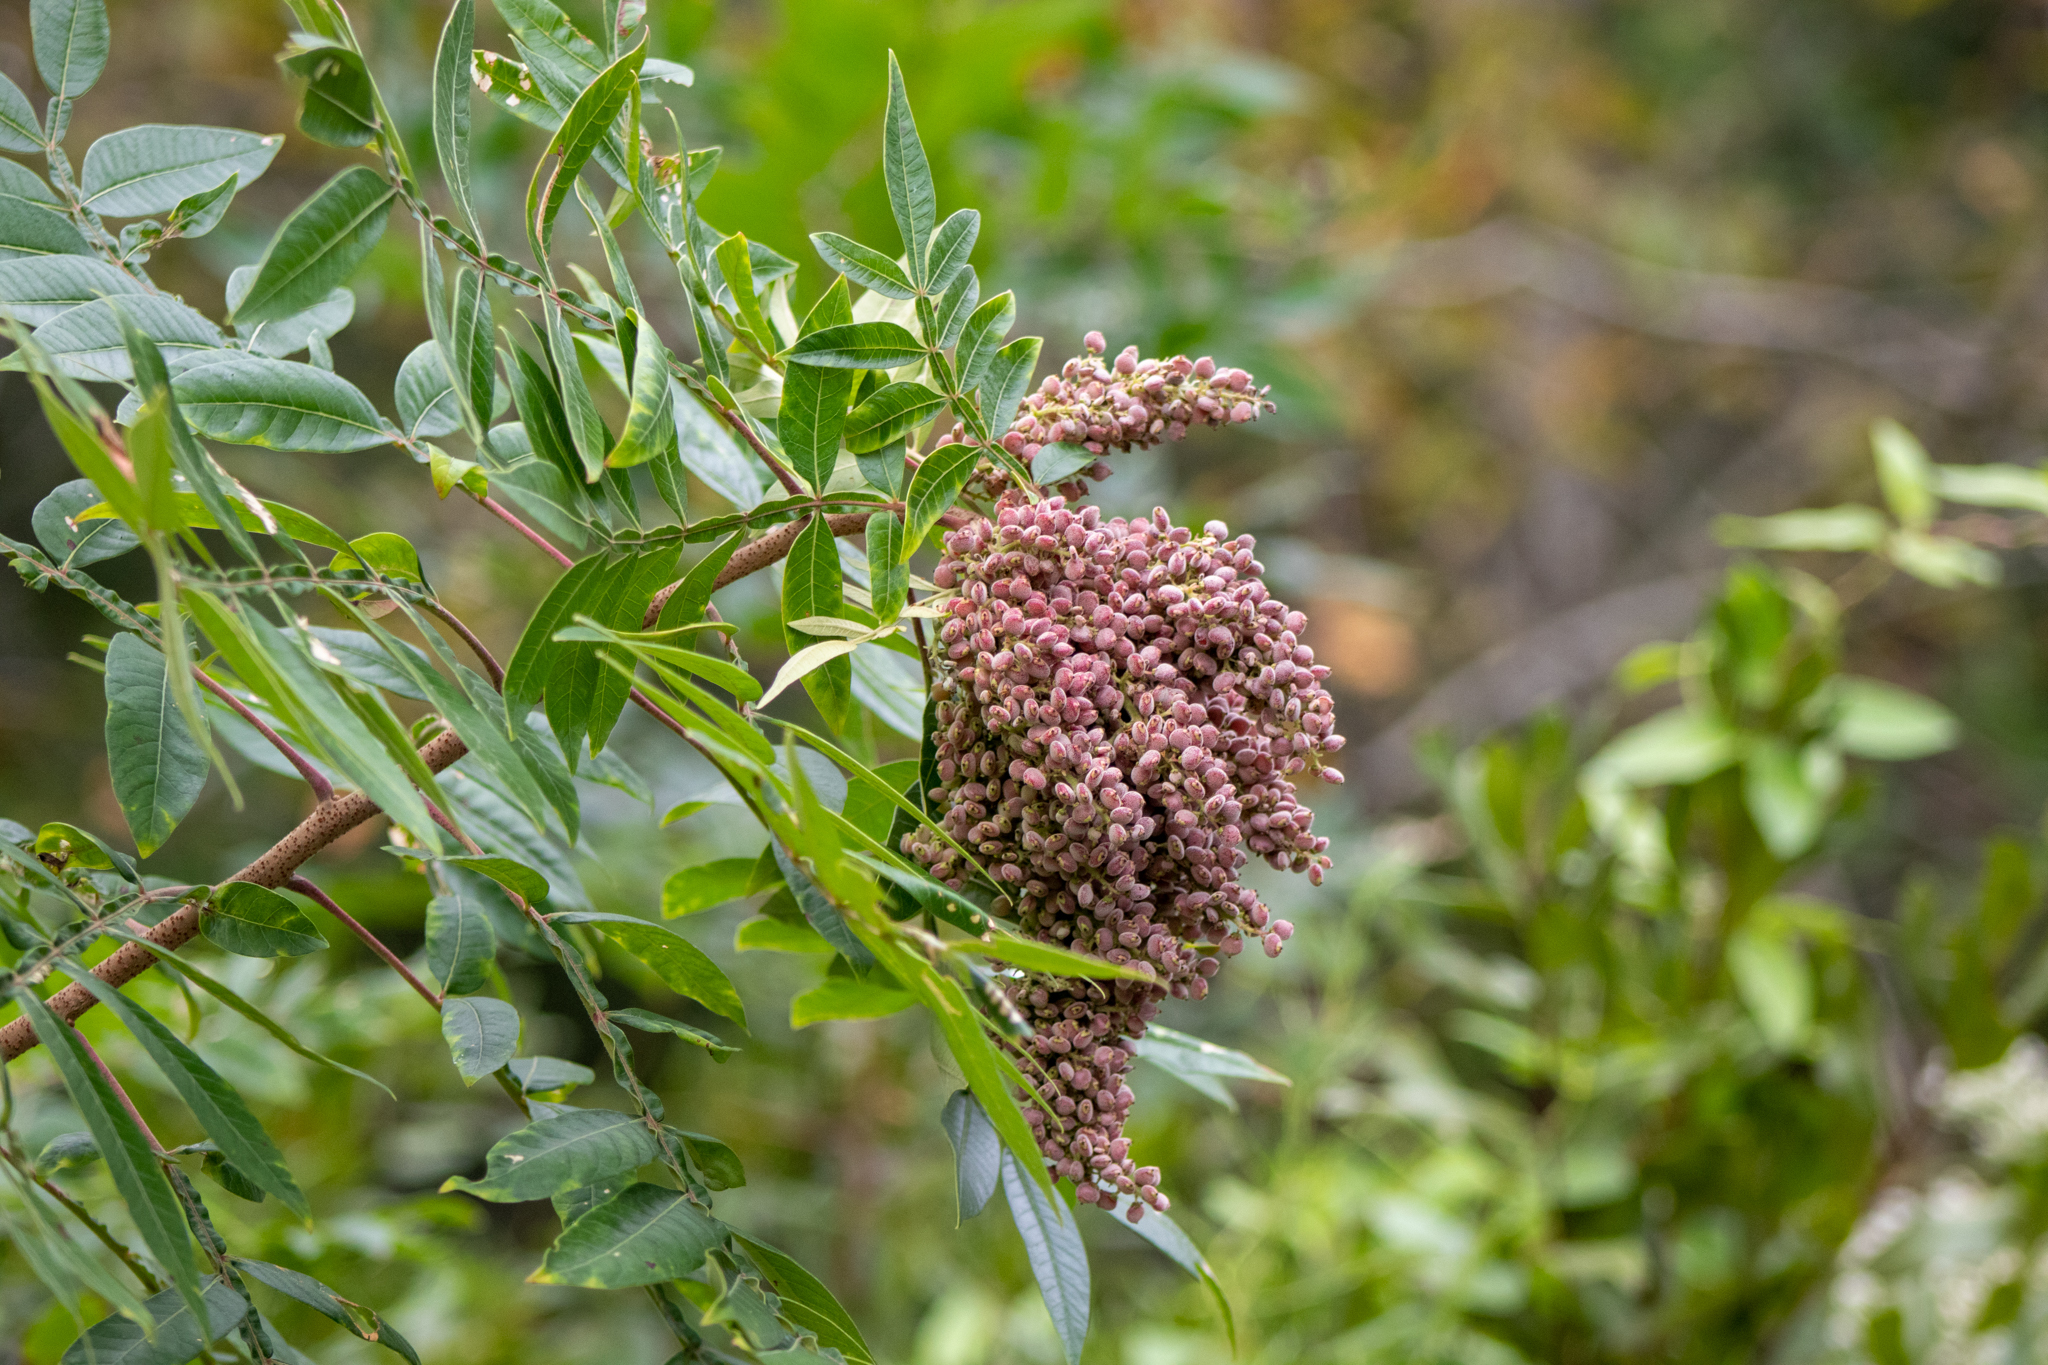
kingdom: Plantae
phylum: Tracheophyta
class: Magnoliopsida
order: Sapindales
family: Anacardiaceae
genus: Rhus
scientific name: Rhus copallina
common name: Shining sumac
